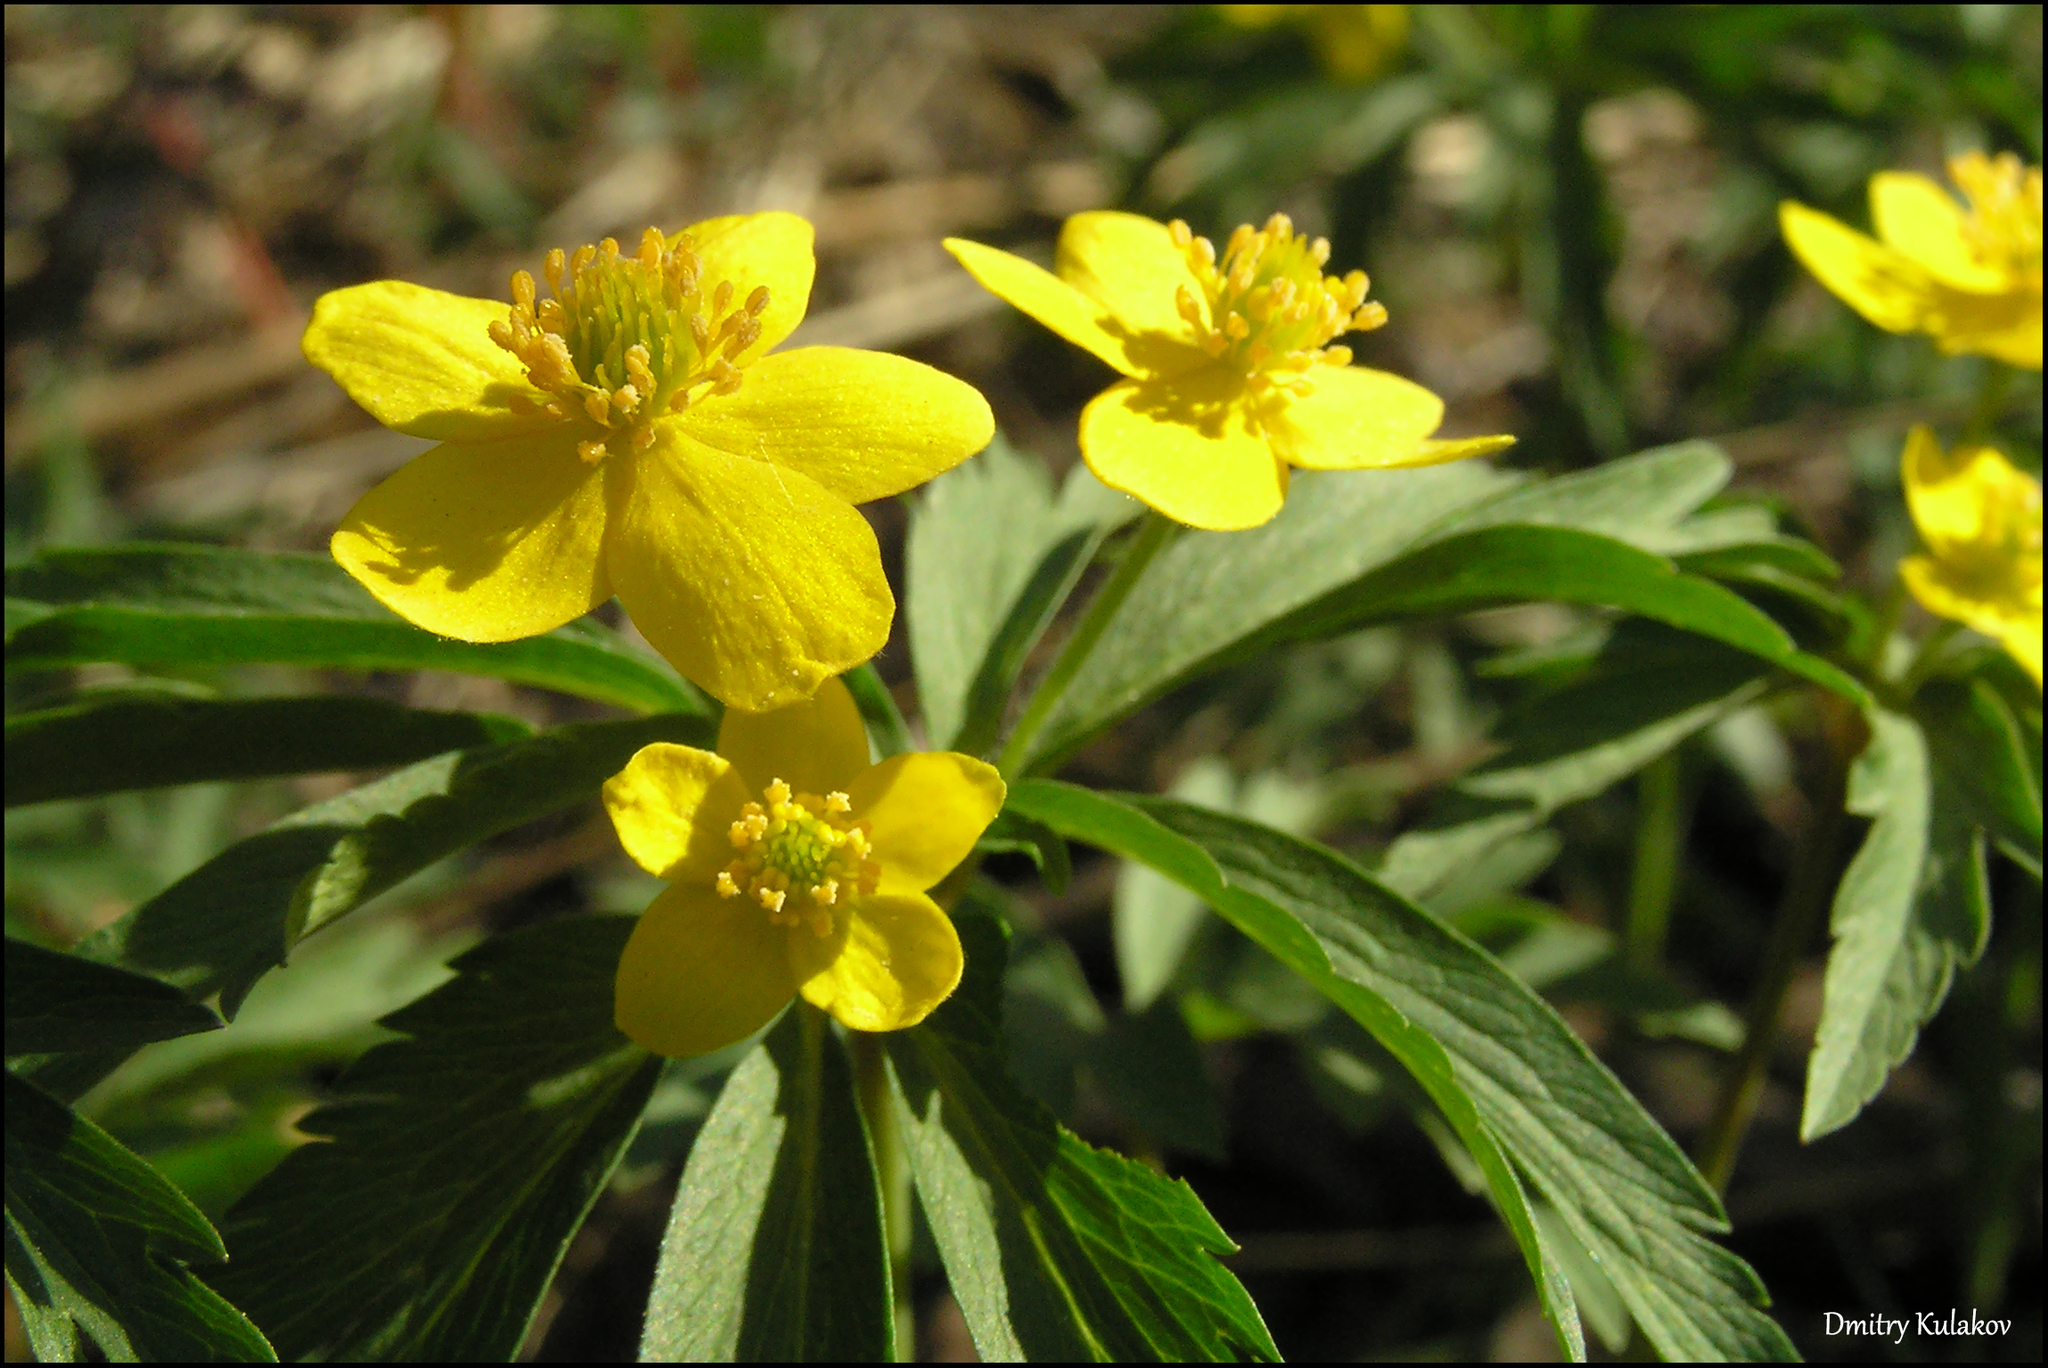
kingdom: Plantae
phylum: Tracheophyta
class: Magnoliopsida
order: Ranunculales
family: Ranunculaceae
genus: Anemone
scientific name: Anemone ranunculoides
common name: Yellow anemone
